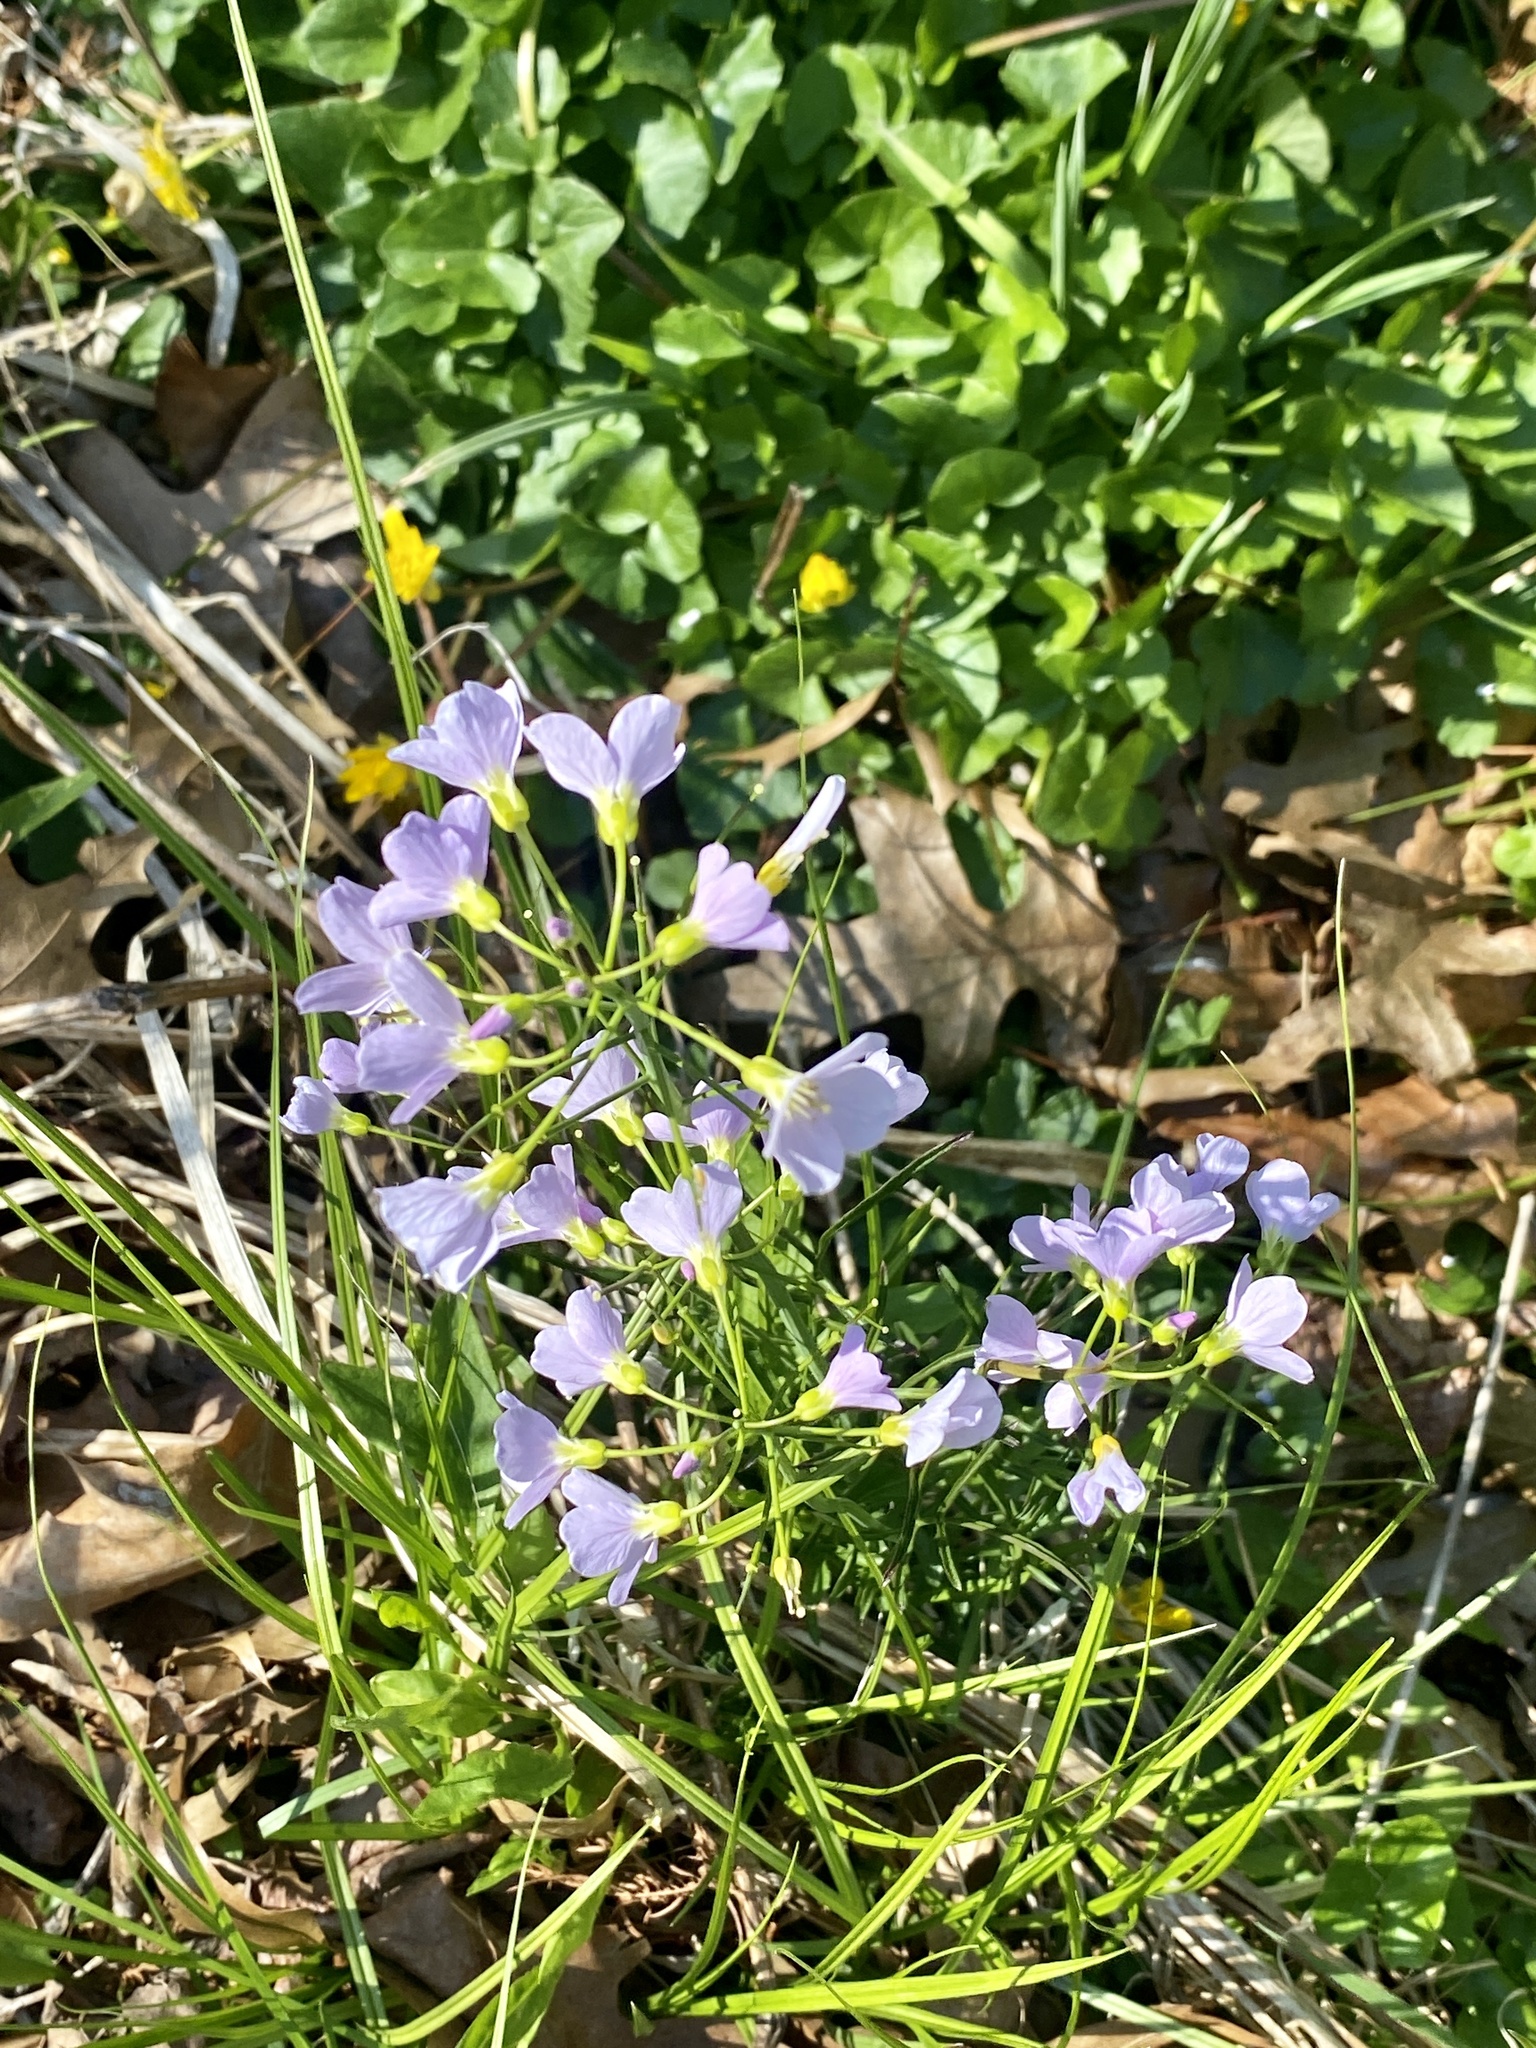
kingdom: Plantae
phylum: Tracheophyta
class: Magnoliopsida
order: Brassicales
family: Brassicaceae
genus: Cardamine
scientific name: Cardamine pratensis
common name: Cuckoo flower
